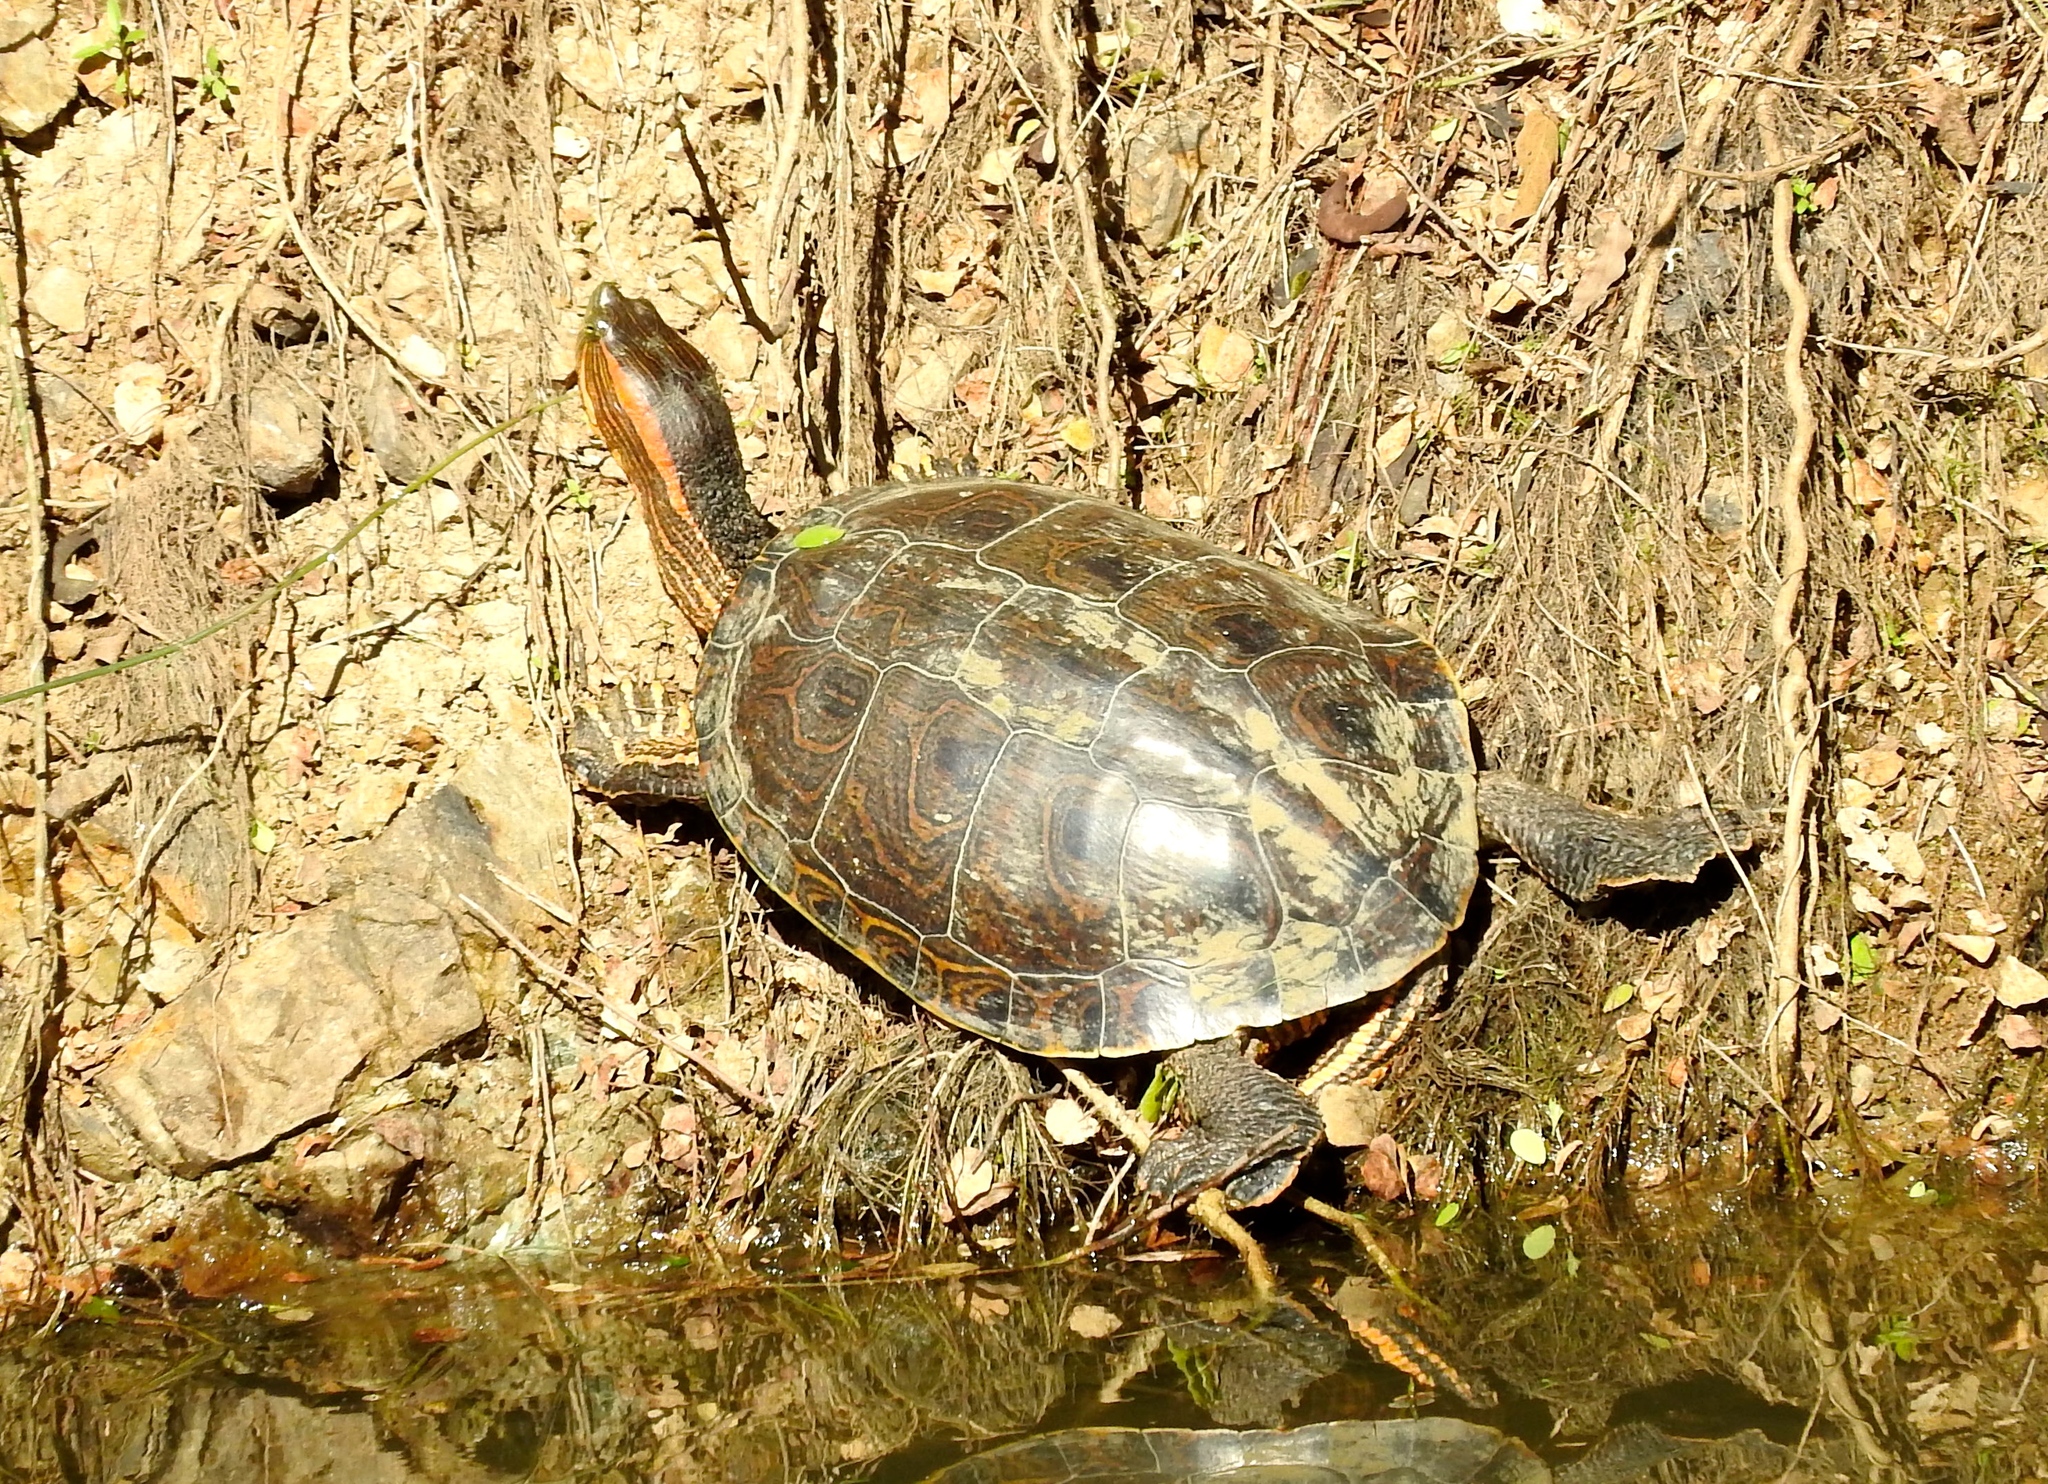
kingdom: Animalia
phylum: Chordata
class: Testudines
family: Emydidae
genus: Trachemys
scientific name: Trachemys ornata
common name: Ornate slider
